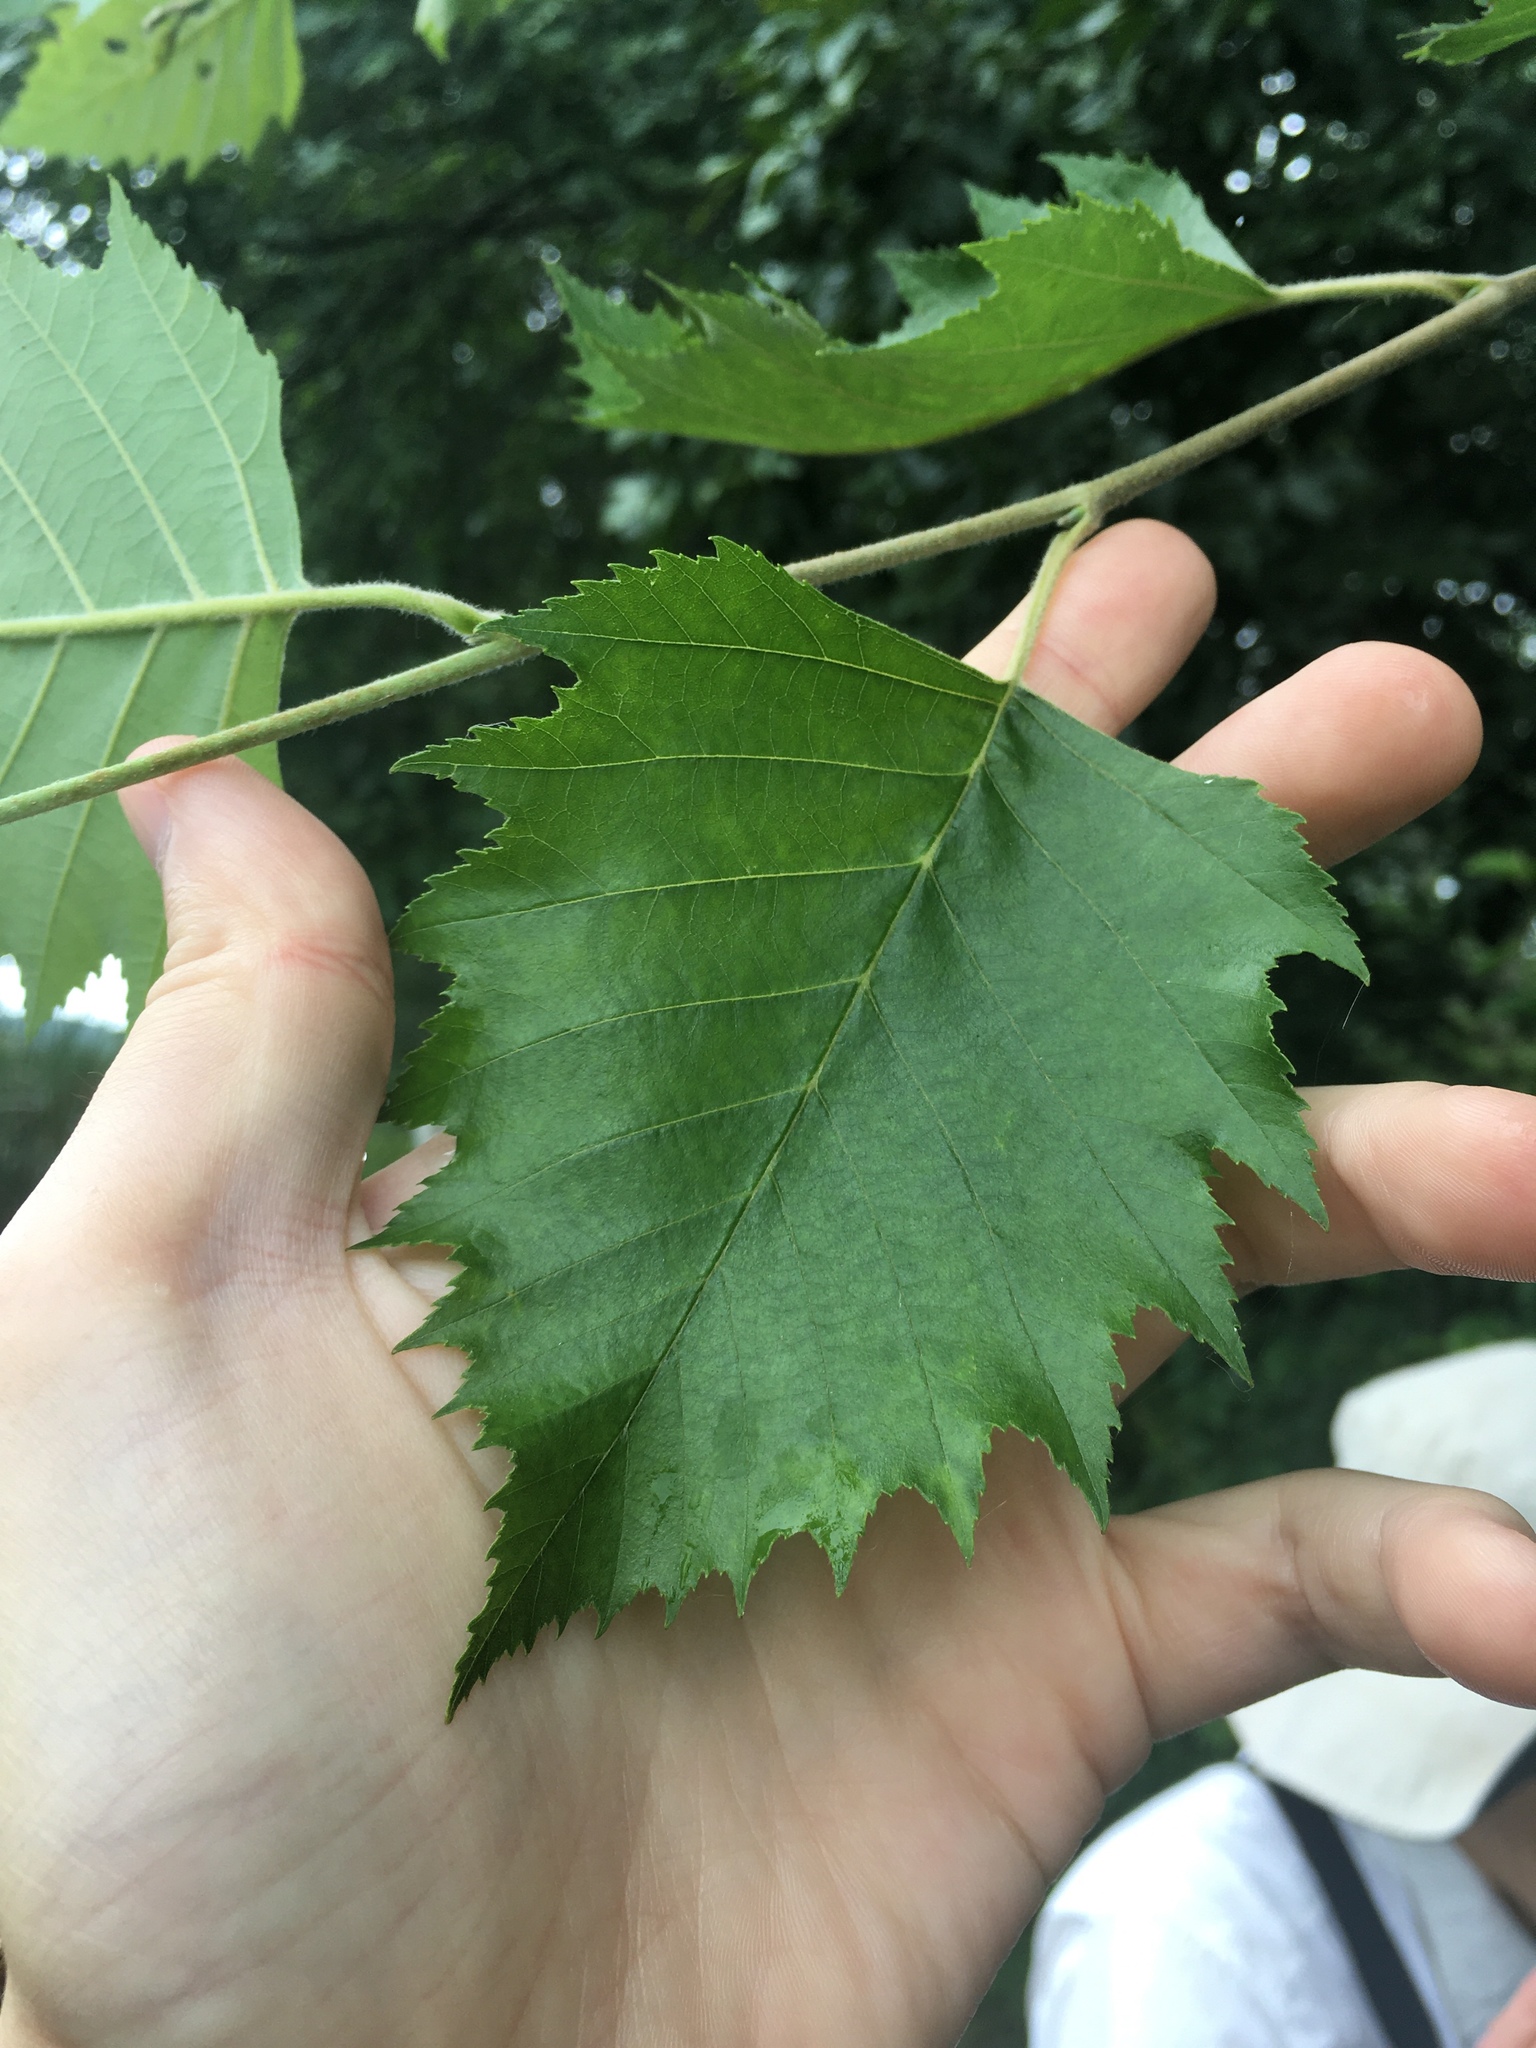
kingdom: Plantae
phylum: Tracheophyta
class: Magnoliopsida
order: Fagales
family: Betulaceae
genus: Betula
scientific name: Betula nigra
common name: Black birch
